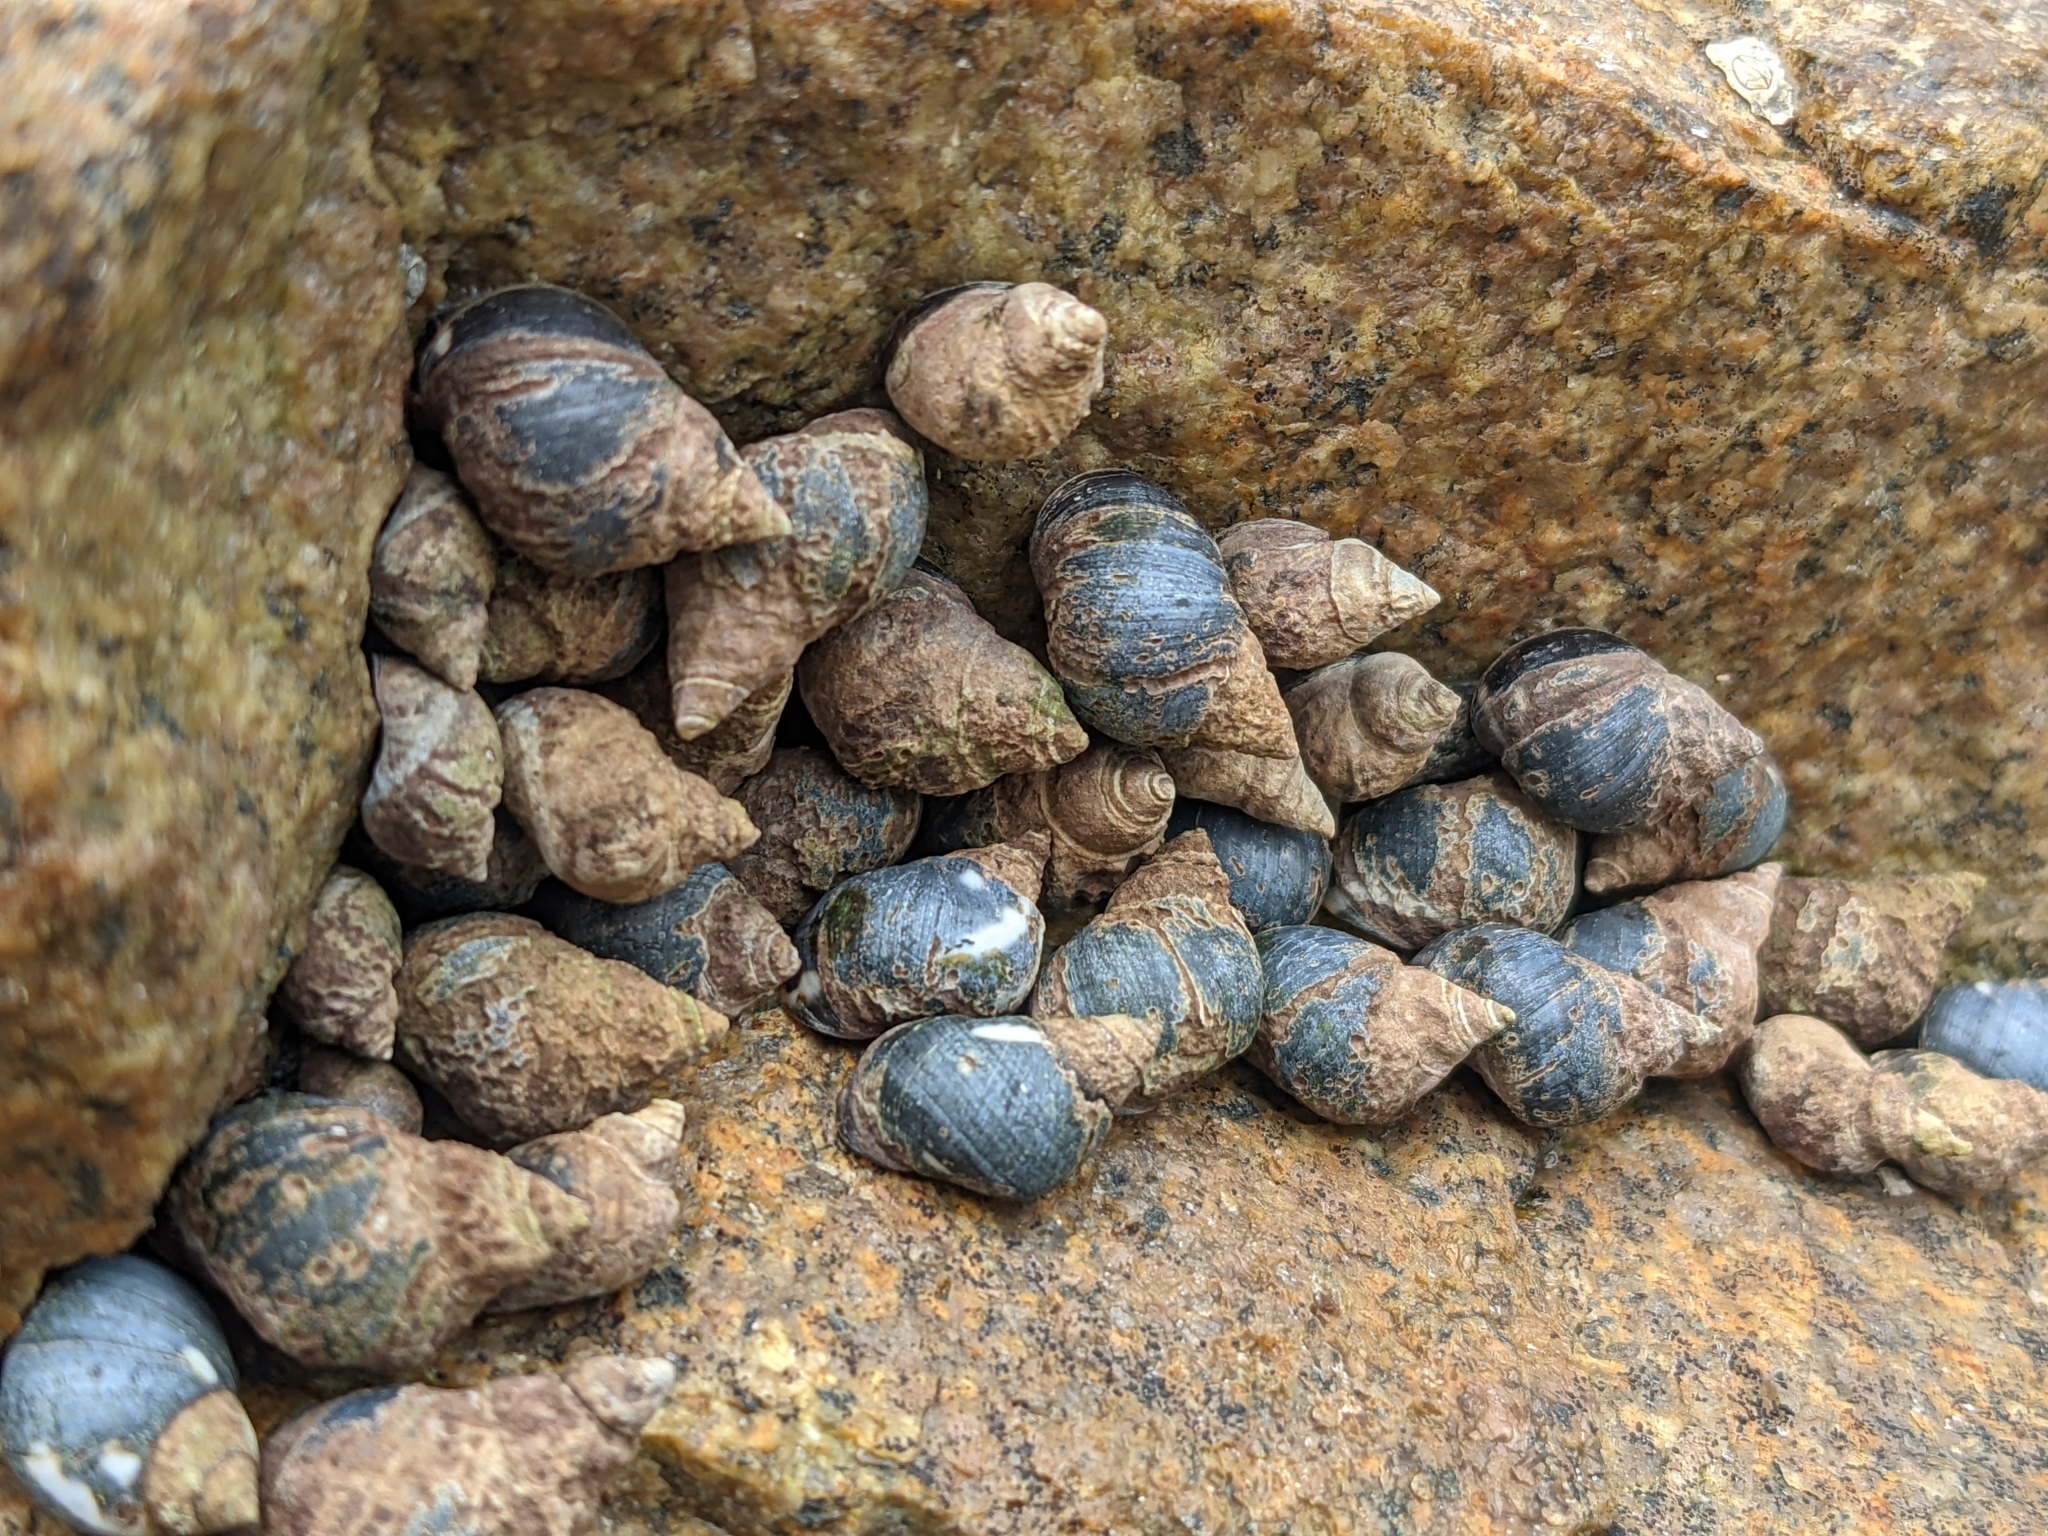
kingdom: Animalia
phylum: Mollusca
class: Gastropoda
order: Littorinimorpha
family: Littorinidae
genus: Echinolittorina
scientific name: Echinolittorina peruviana
